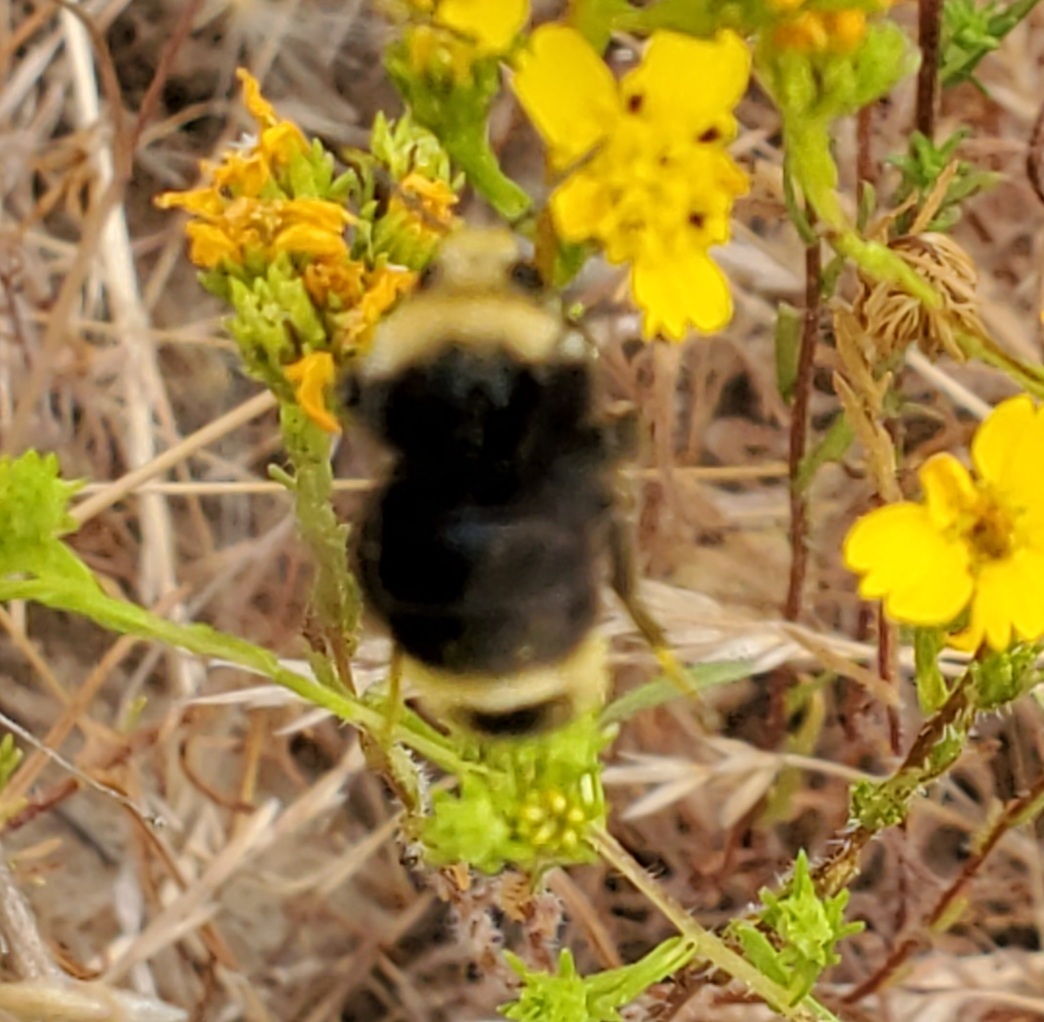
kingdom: Animalia
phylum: Arthropoda
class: Insecta
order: Hymenoptera
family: Apidae
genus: Bombus
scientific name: Bombus vosnesenskii
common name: Vosnesensky bumble bee
